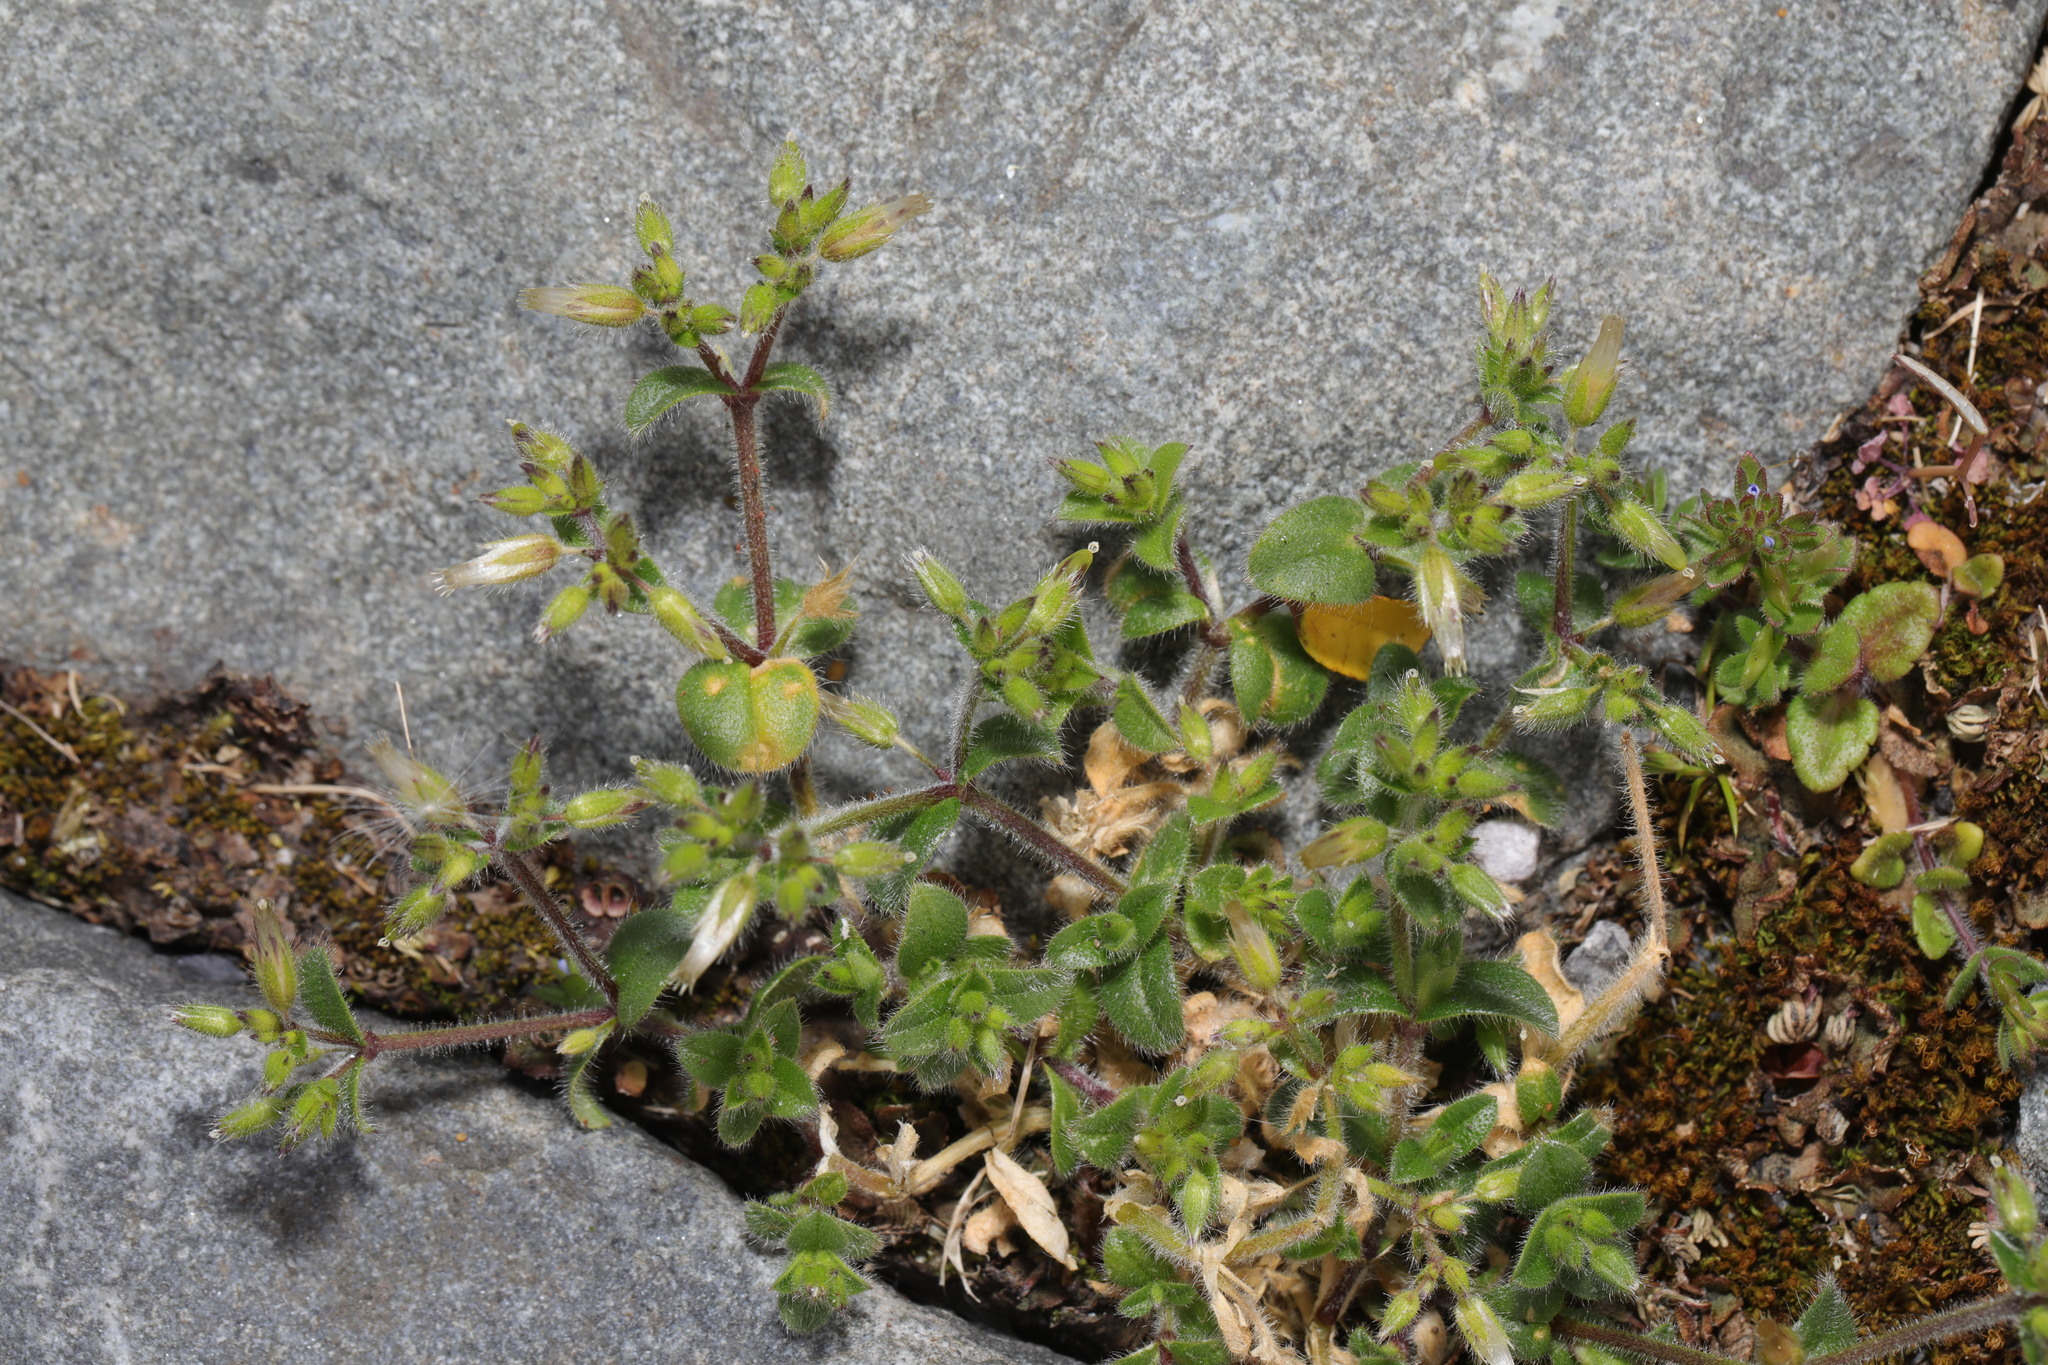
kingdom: Plantae
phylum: Tracheophyta
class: Magnoliopsida
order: Caryophyllales
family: Caryophyllaceae
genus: Cerastium
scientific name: Cerastium glomeratum
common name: Sticky chickweed
